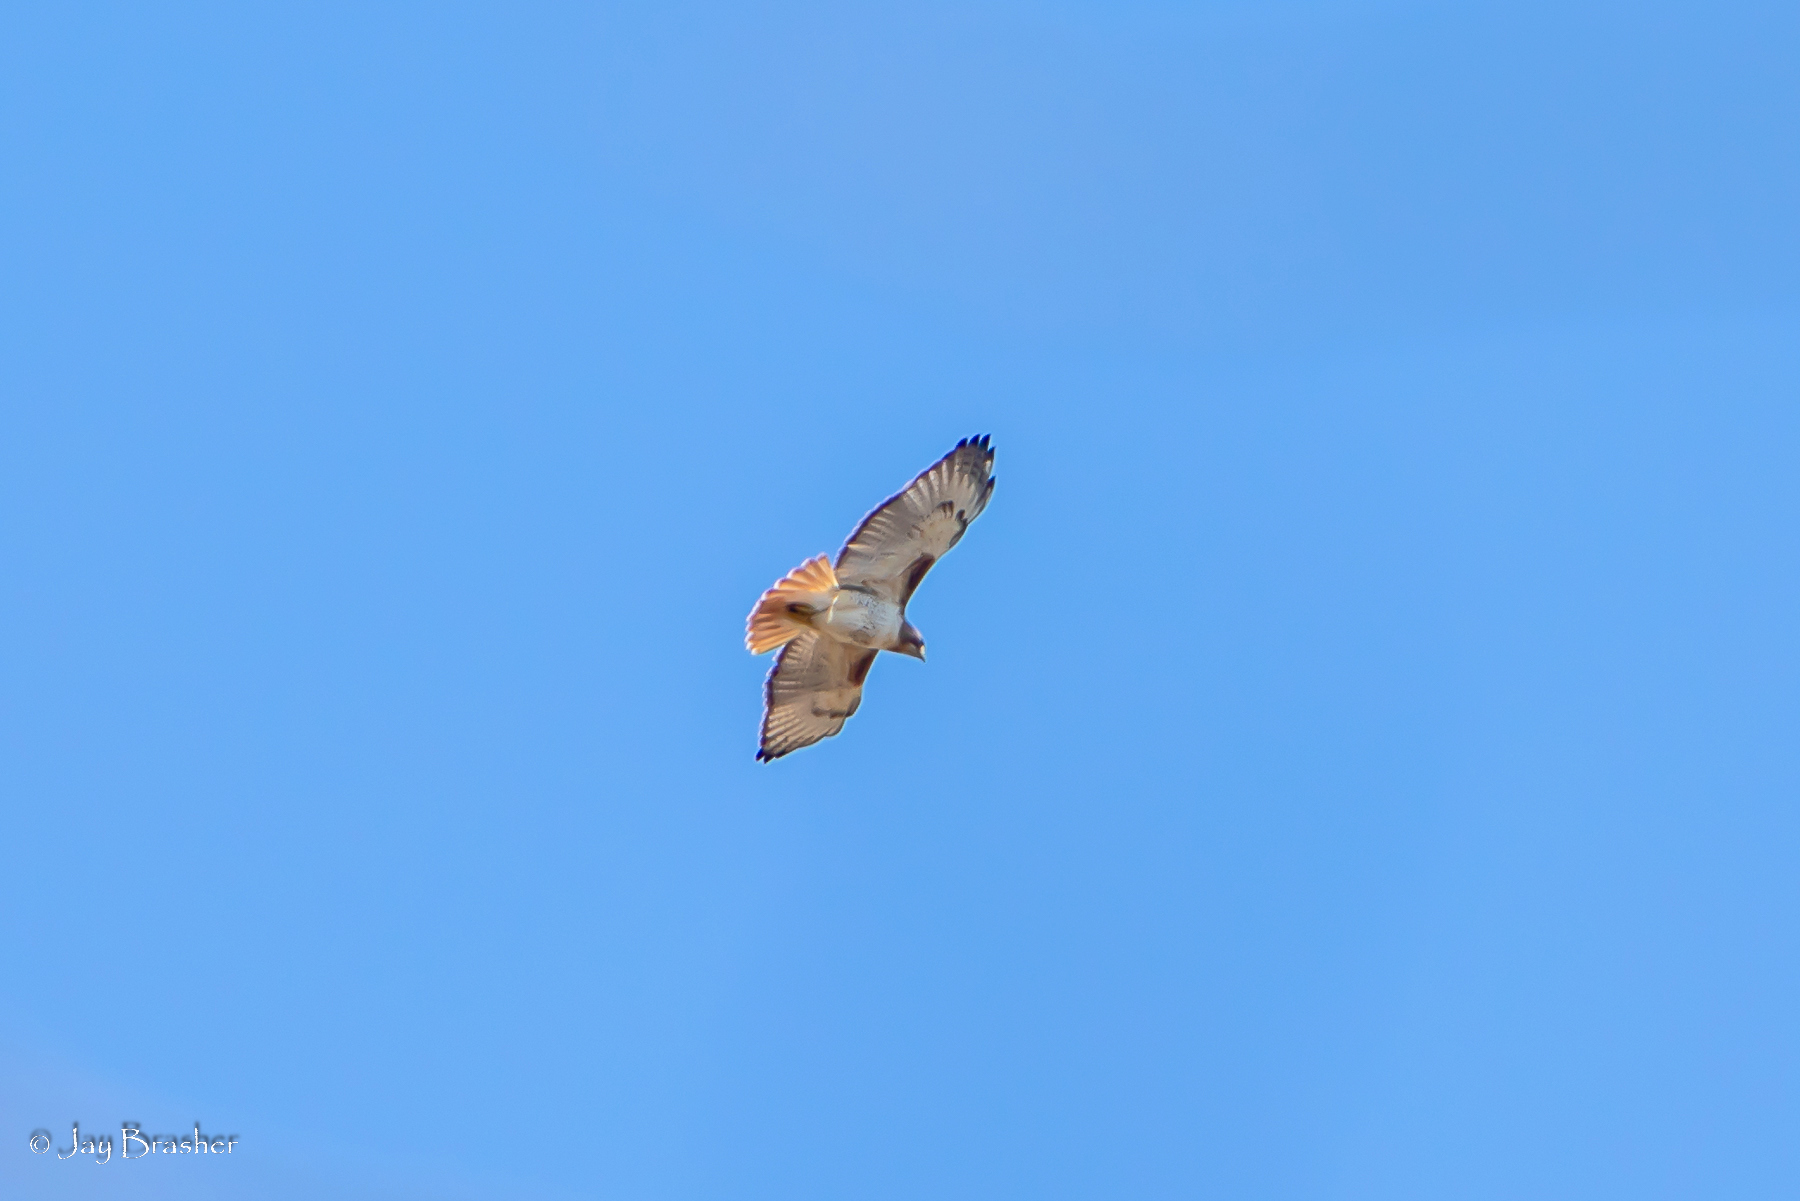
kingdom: Animalia
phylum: Chordata
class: Aves
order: Accipitriformes
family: Accipitridae
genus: Buteo
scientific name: Buteo jamaicensis
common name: Red-tailed hawk
